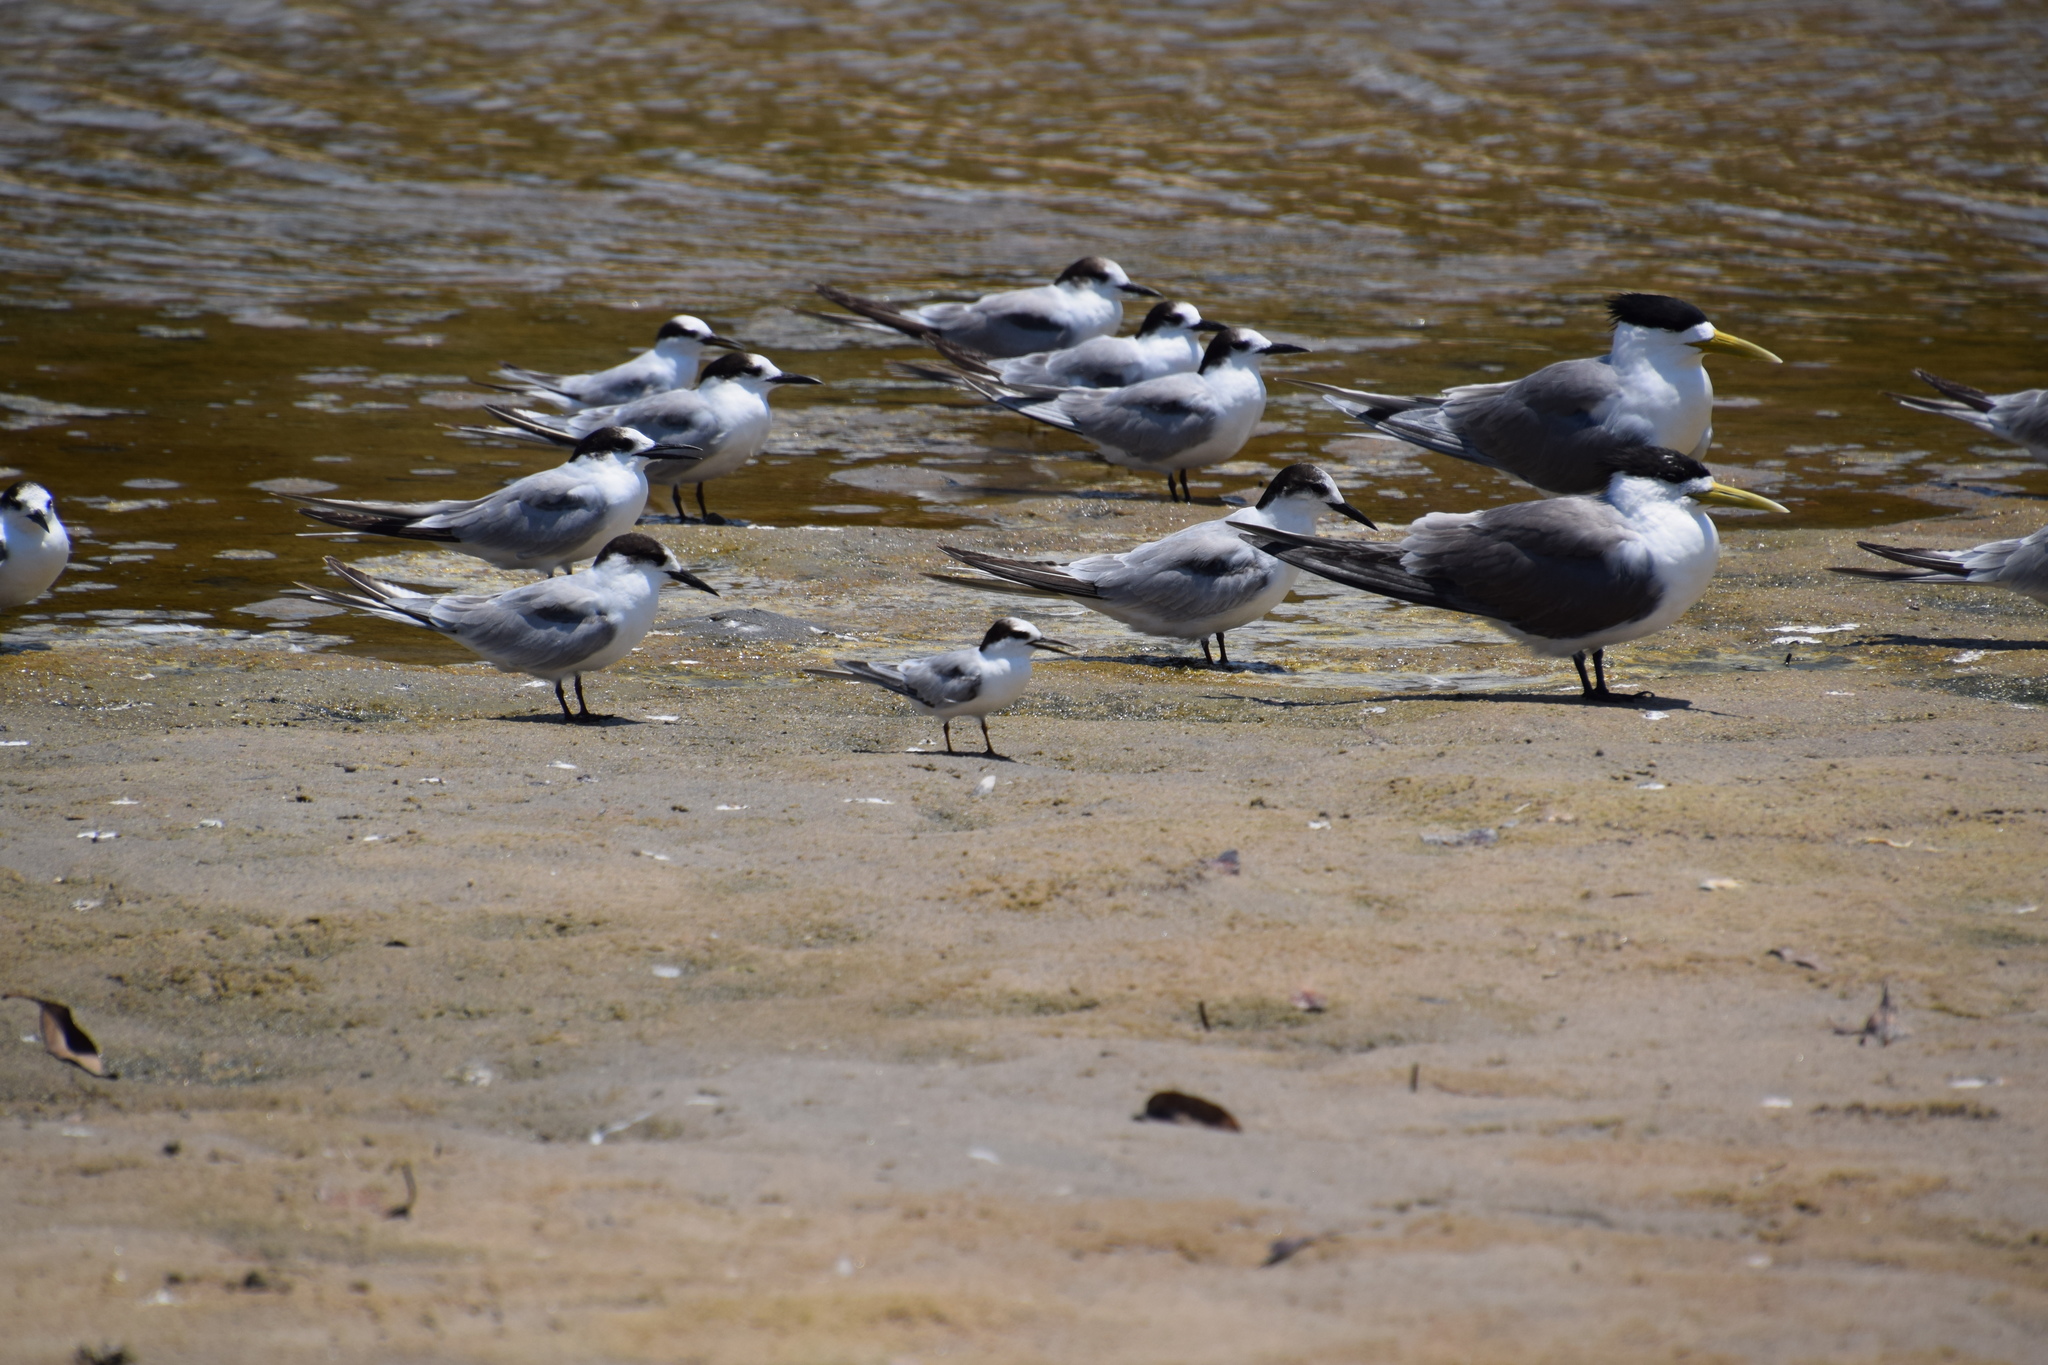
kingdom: Animalia
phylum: Chordata
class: Aves
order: Charadriiformes
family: Laridae
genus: Sternula
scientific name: Sternula albifrons
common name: Little tern
